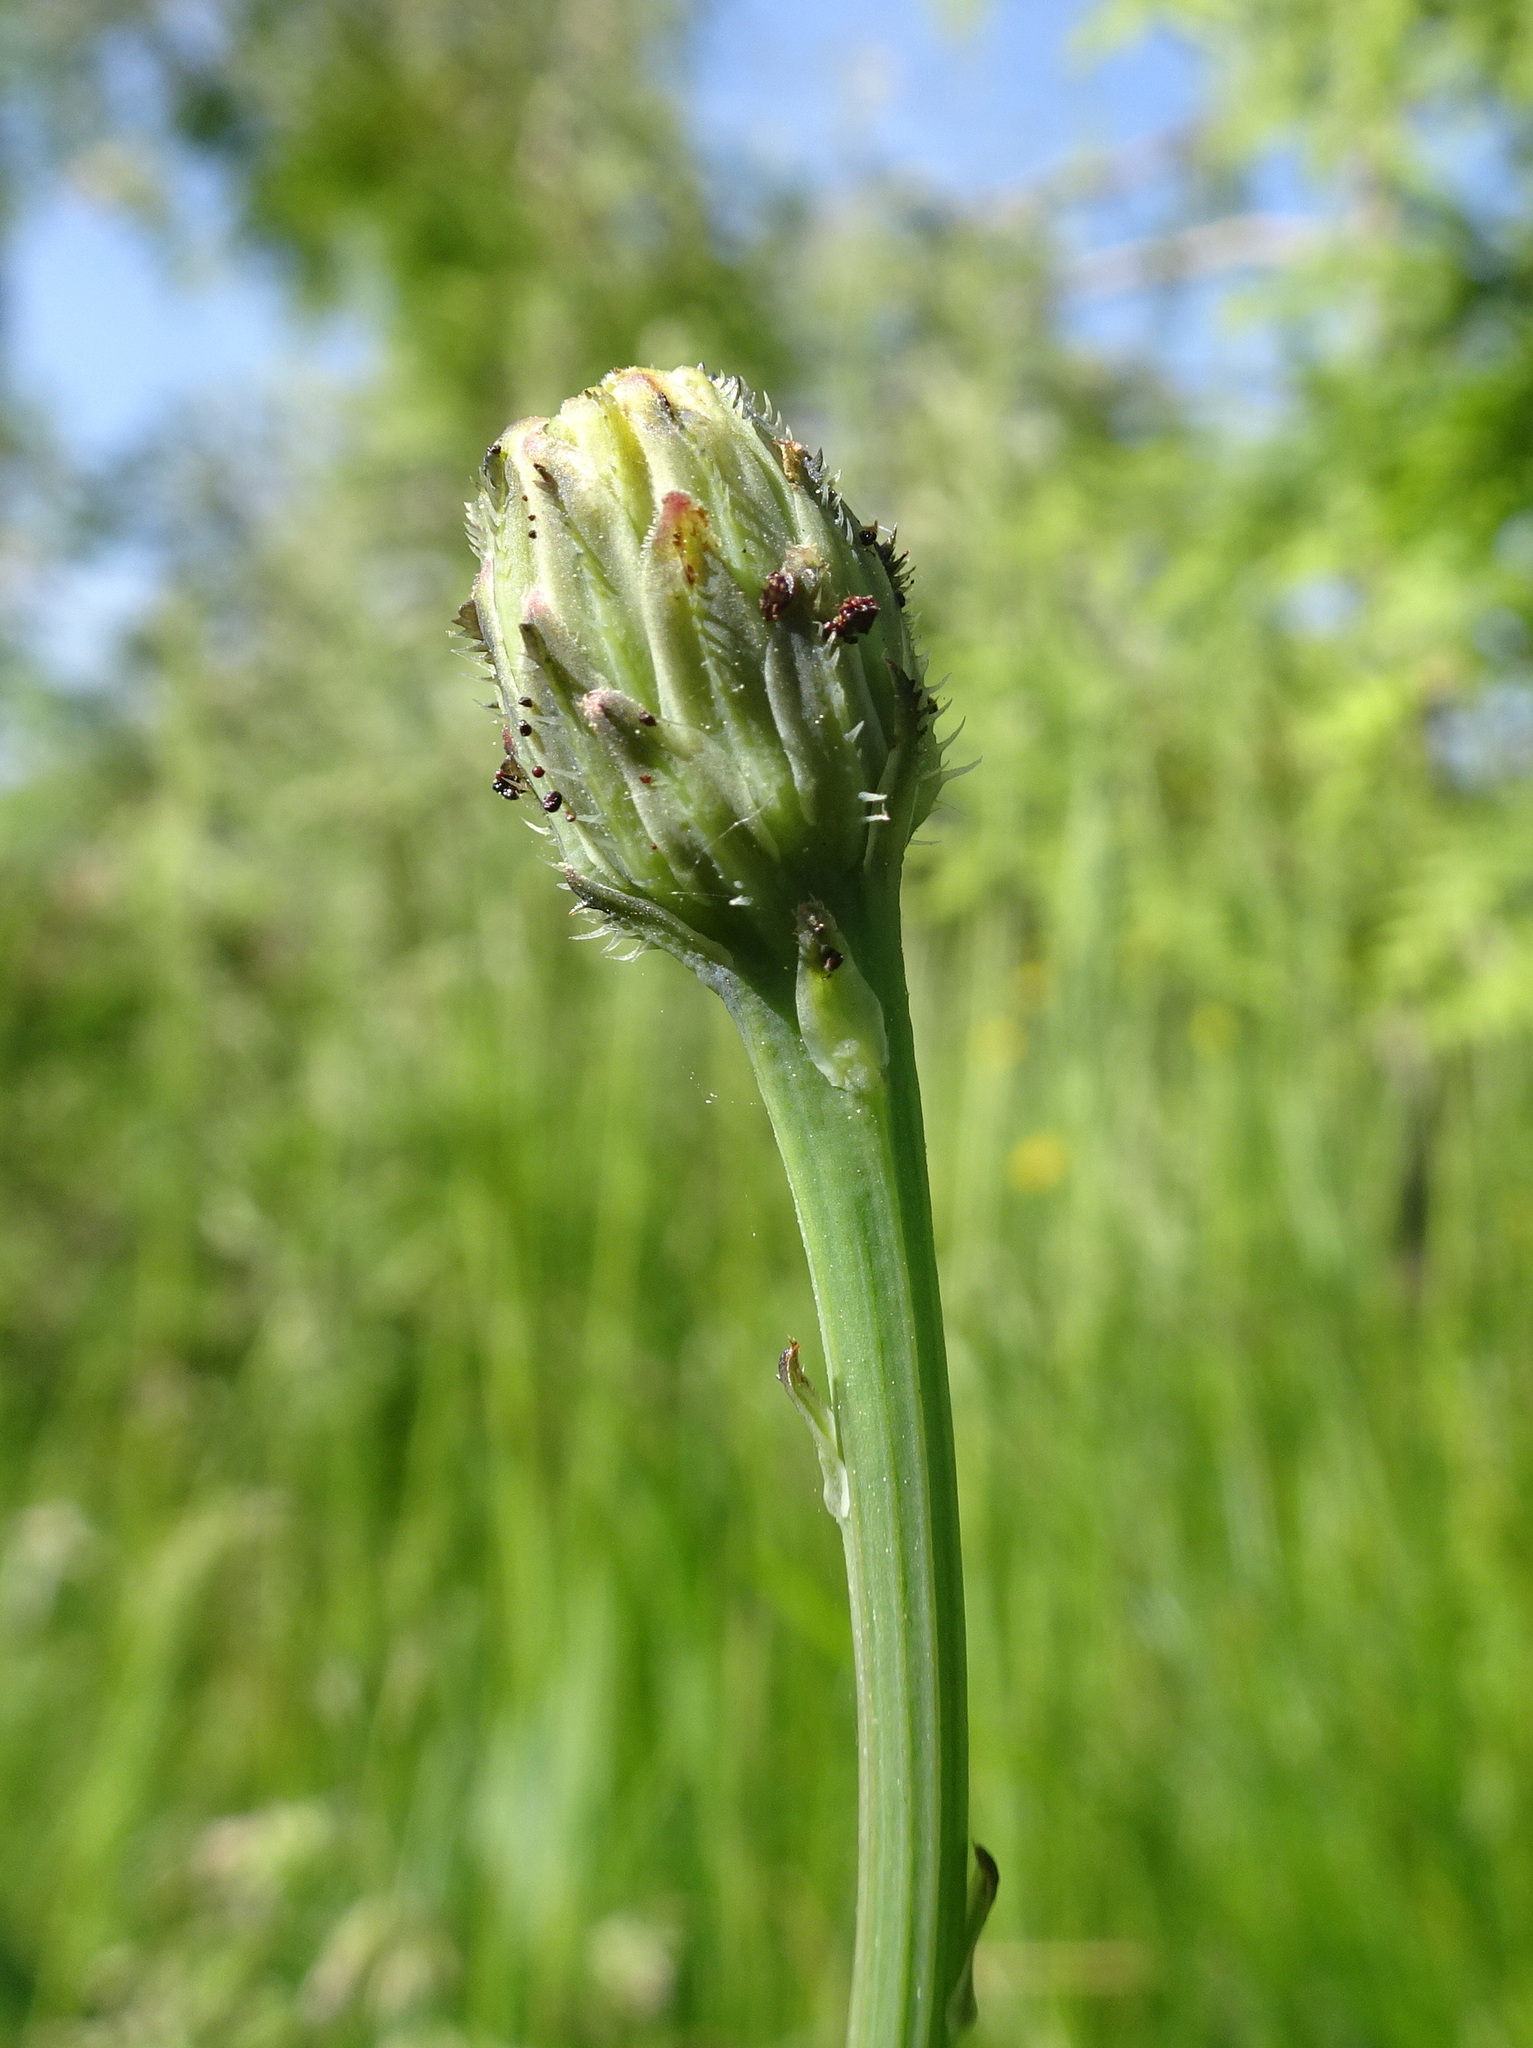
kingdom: Plantae
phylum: Tracheophyta
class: Magnoliopsida
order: Asterales
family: Asteraceae
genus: Hypochaeris
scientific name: Hypochaeris radicata
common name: Flatweed
